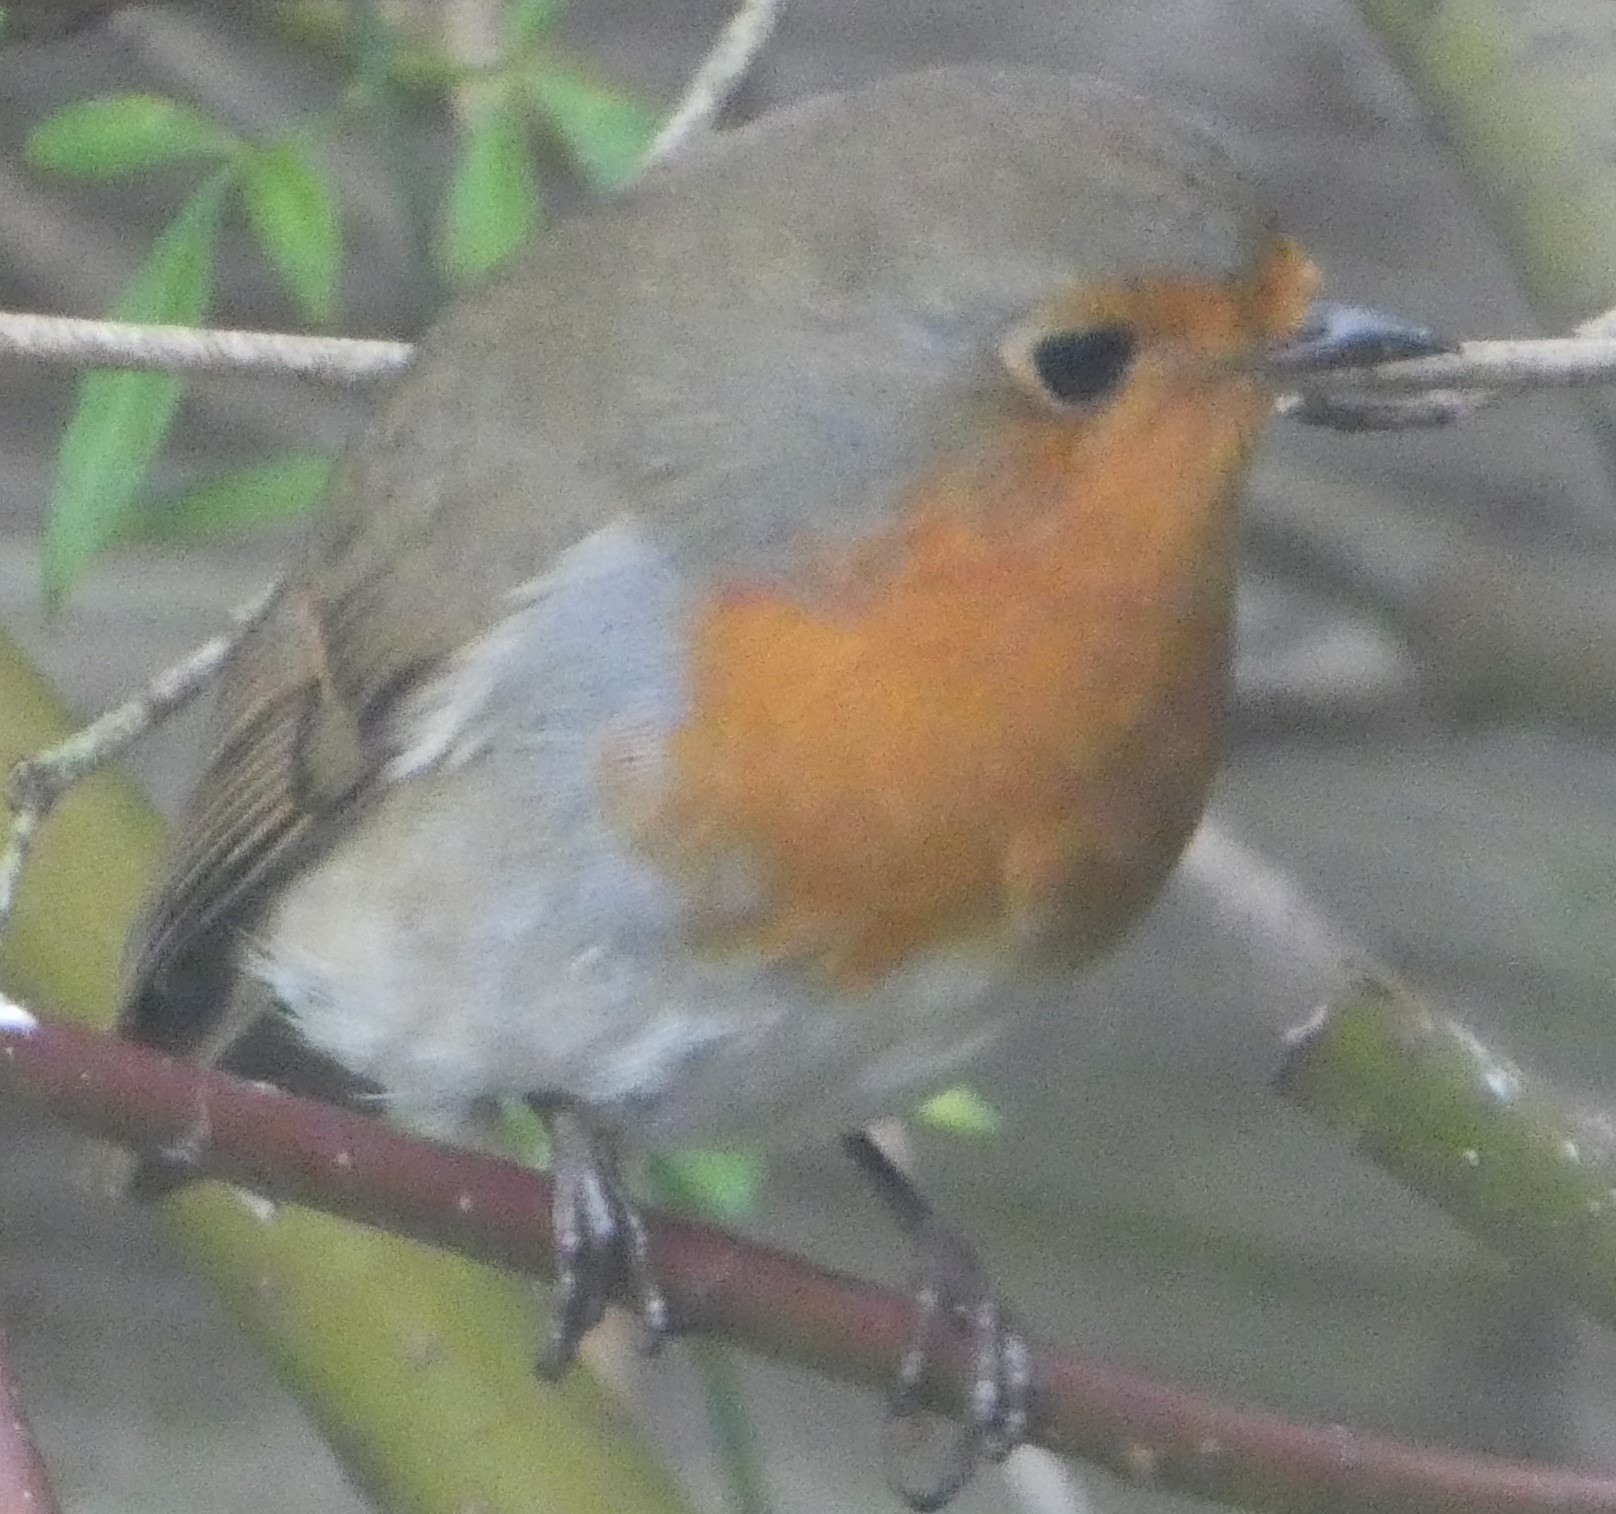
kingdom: Animalia
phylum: Chordata
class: Aves
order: Passeriformes
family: Muscicapidae
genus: Erithacus
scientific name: Erithacus rubecula
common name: European robin
